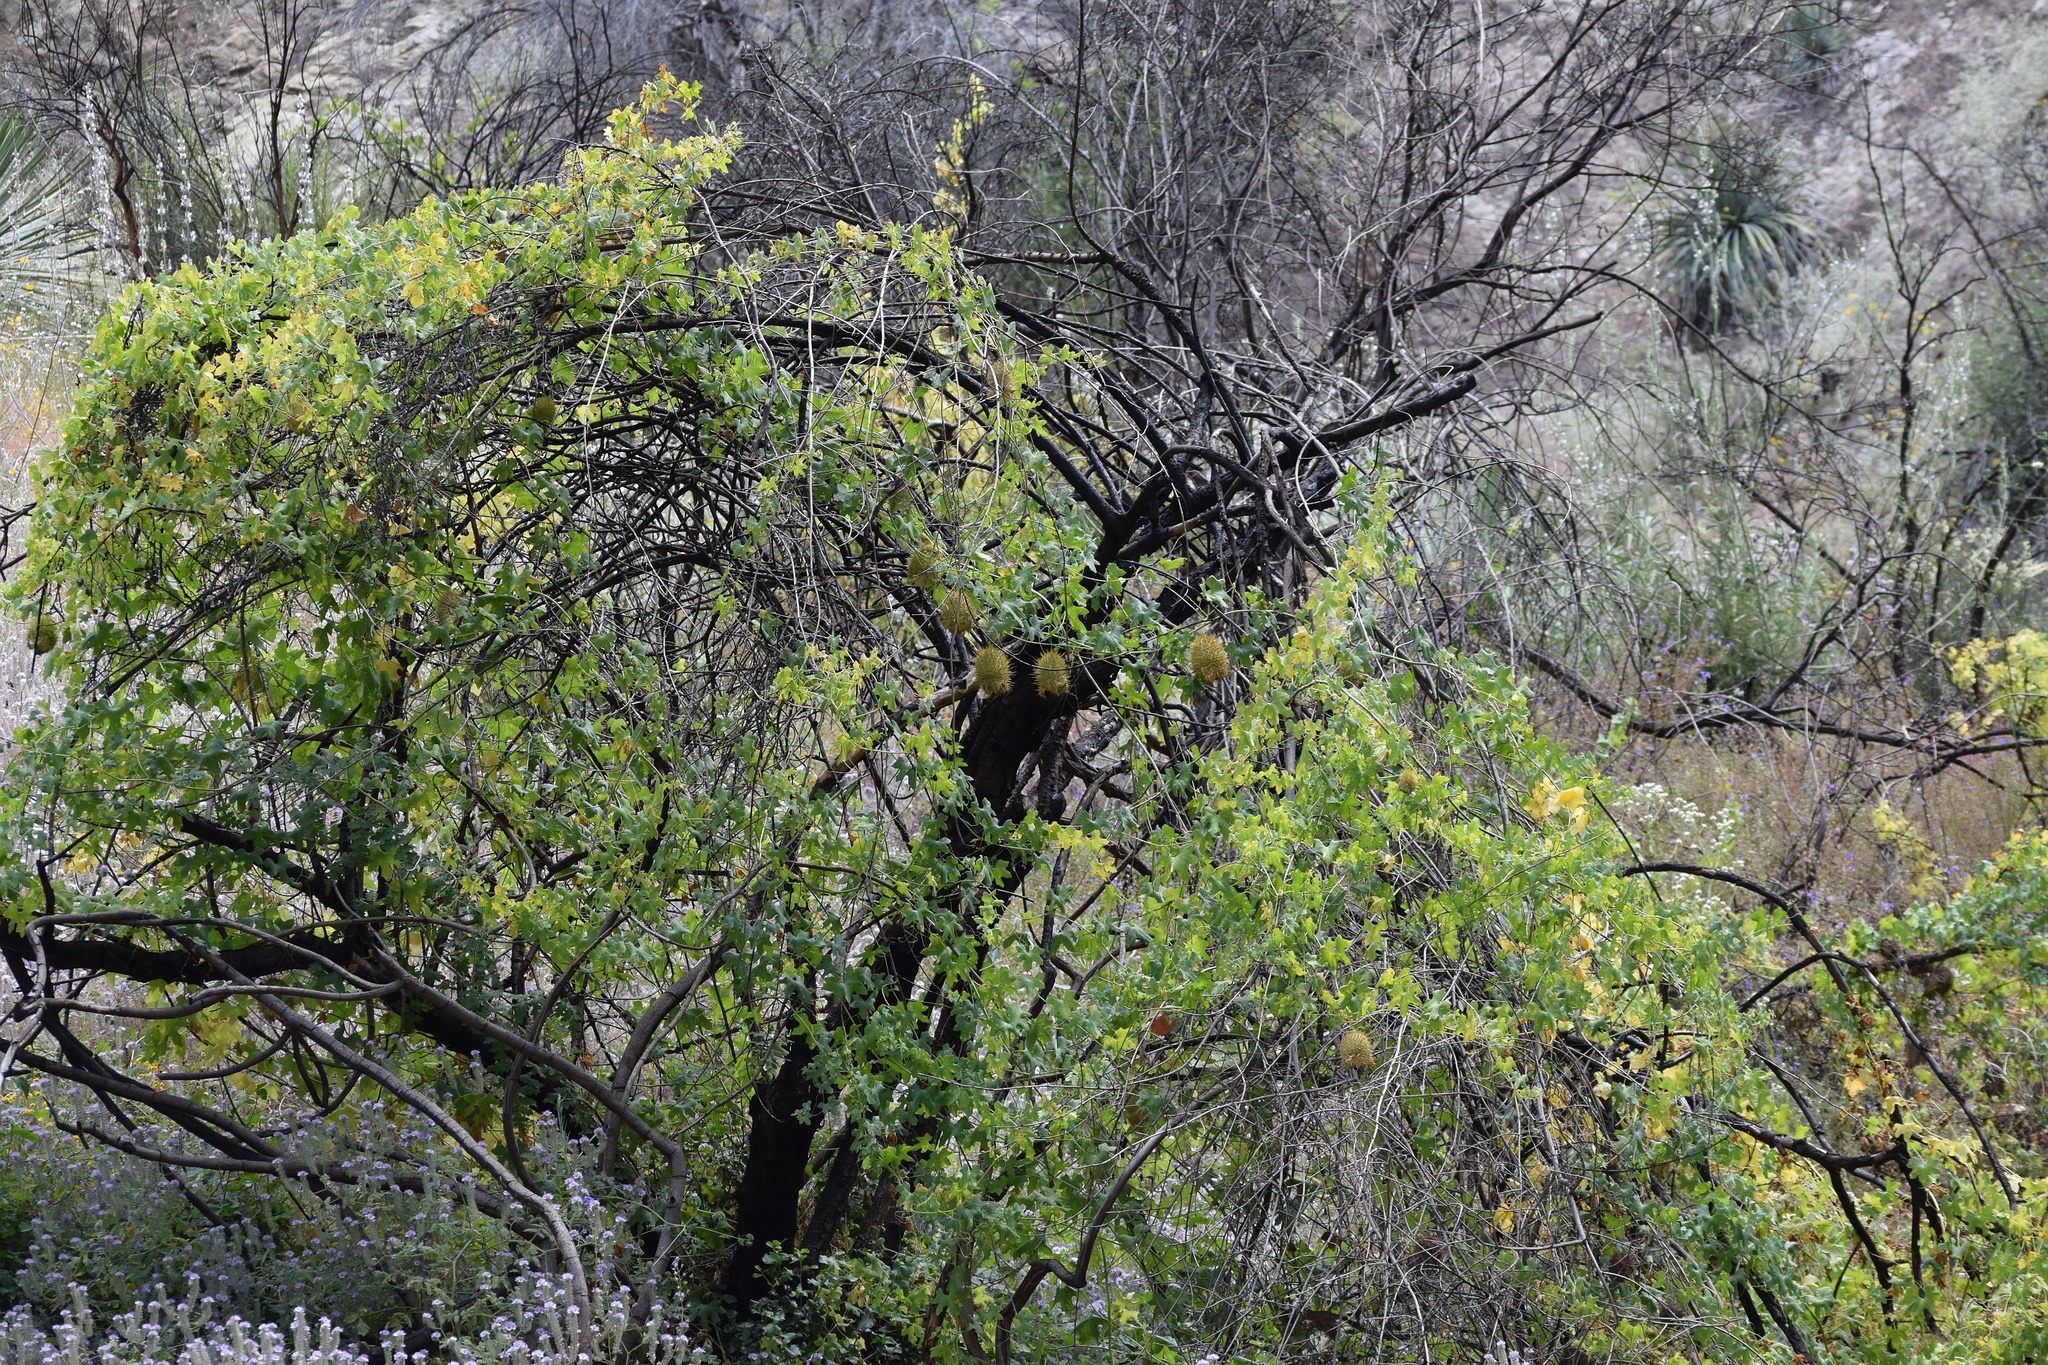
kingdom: Plantae
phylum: Tracheophyta
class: Magnoliopsida
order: Cucurbitales
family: Cucurbitaceae
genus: Marah
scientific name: Marah macrocarpa
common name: Cucamonga manroot
